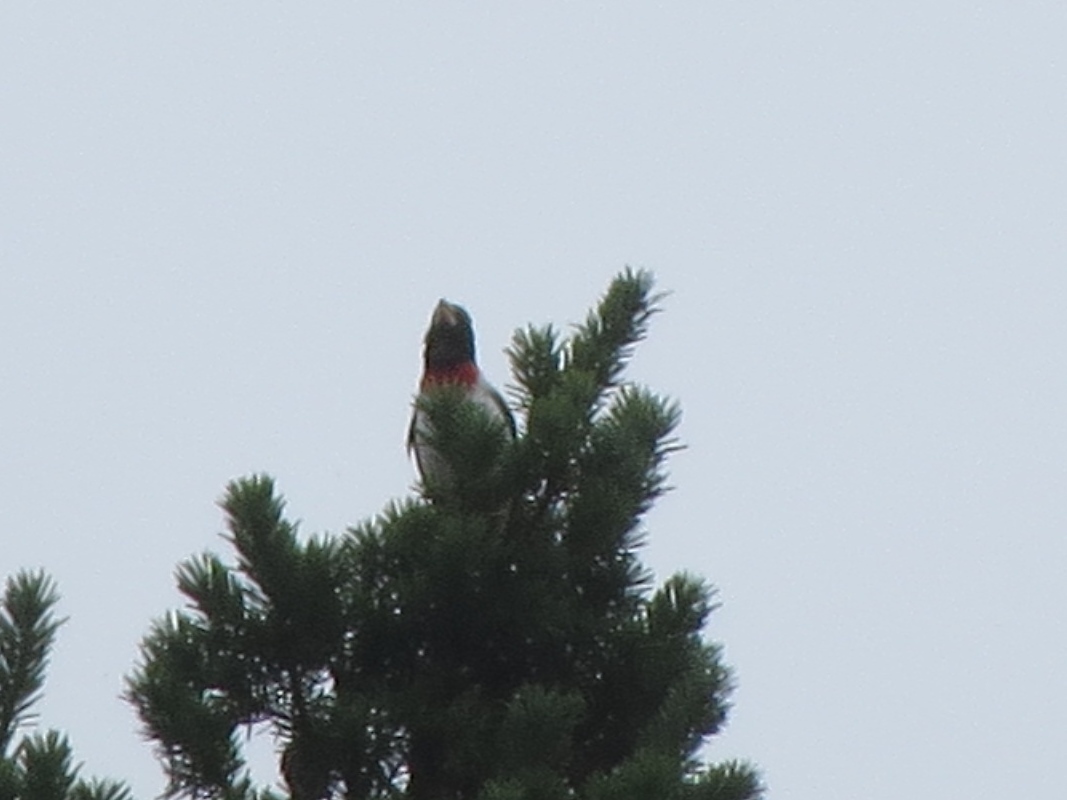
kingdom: Animalia
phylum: Chordata
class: Aves
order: Passeriformes
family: Cardinalidae
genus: Pheucticus
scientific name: Pheucticus ludovicianus
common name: Rose-breasted grosbeak
